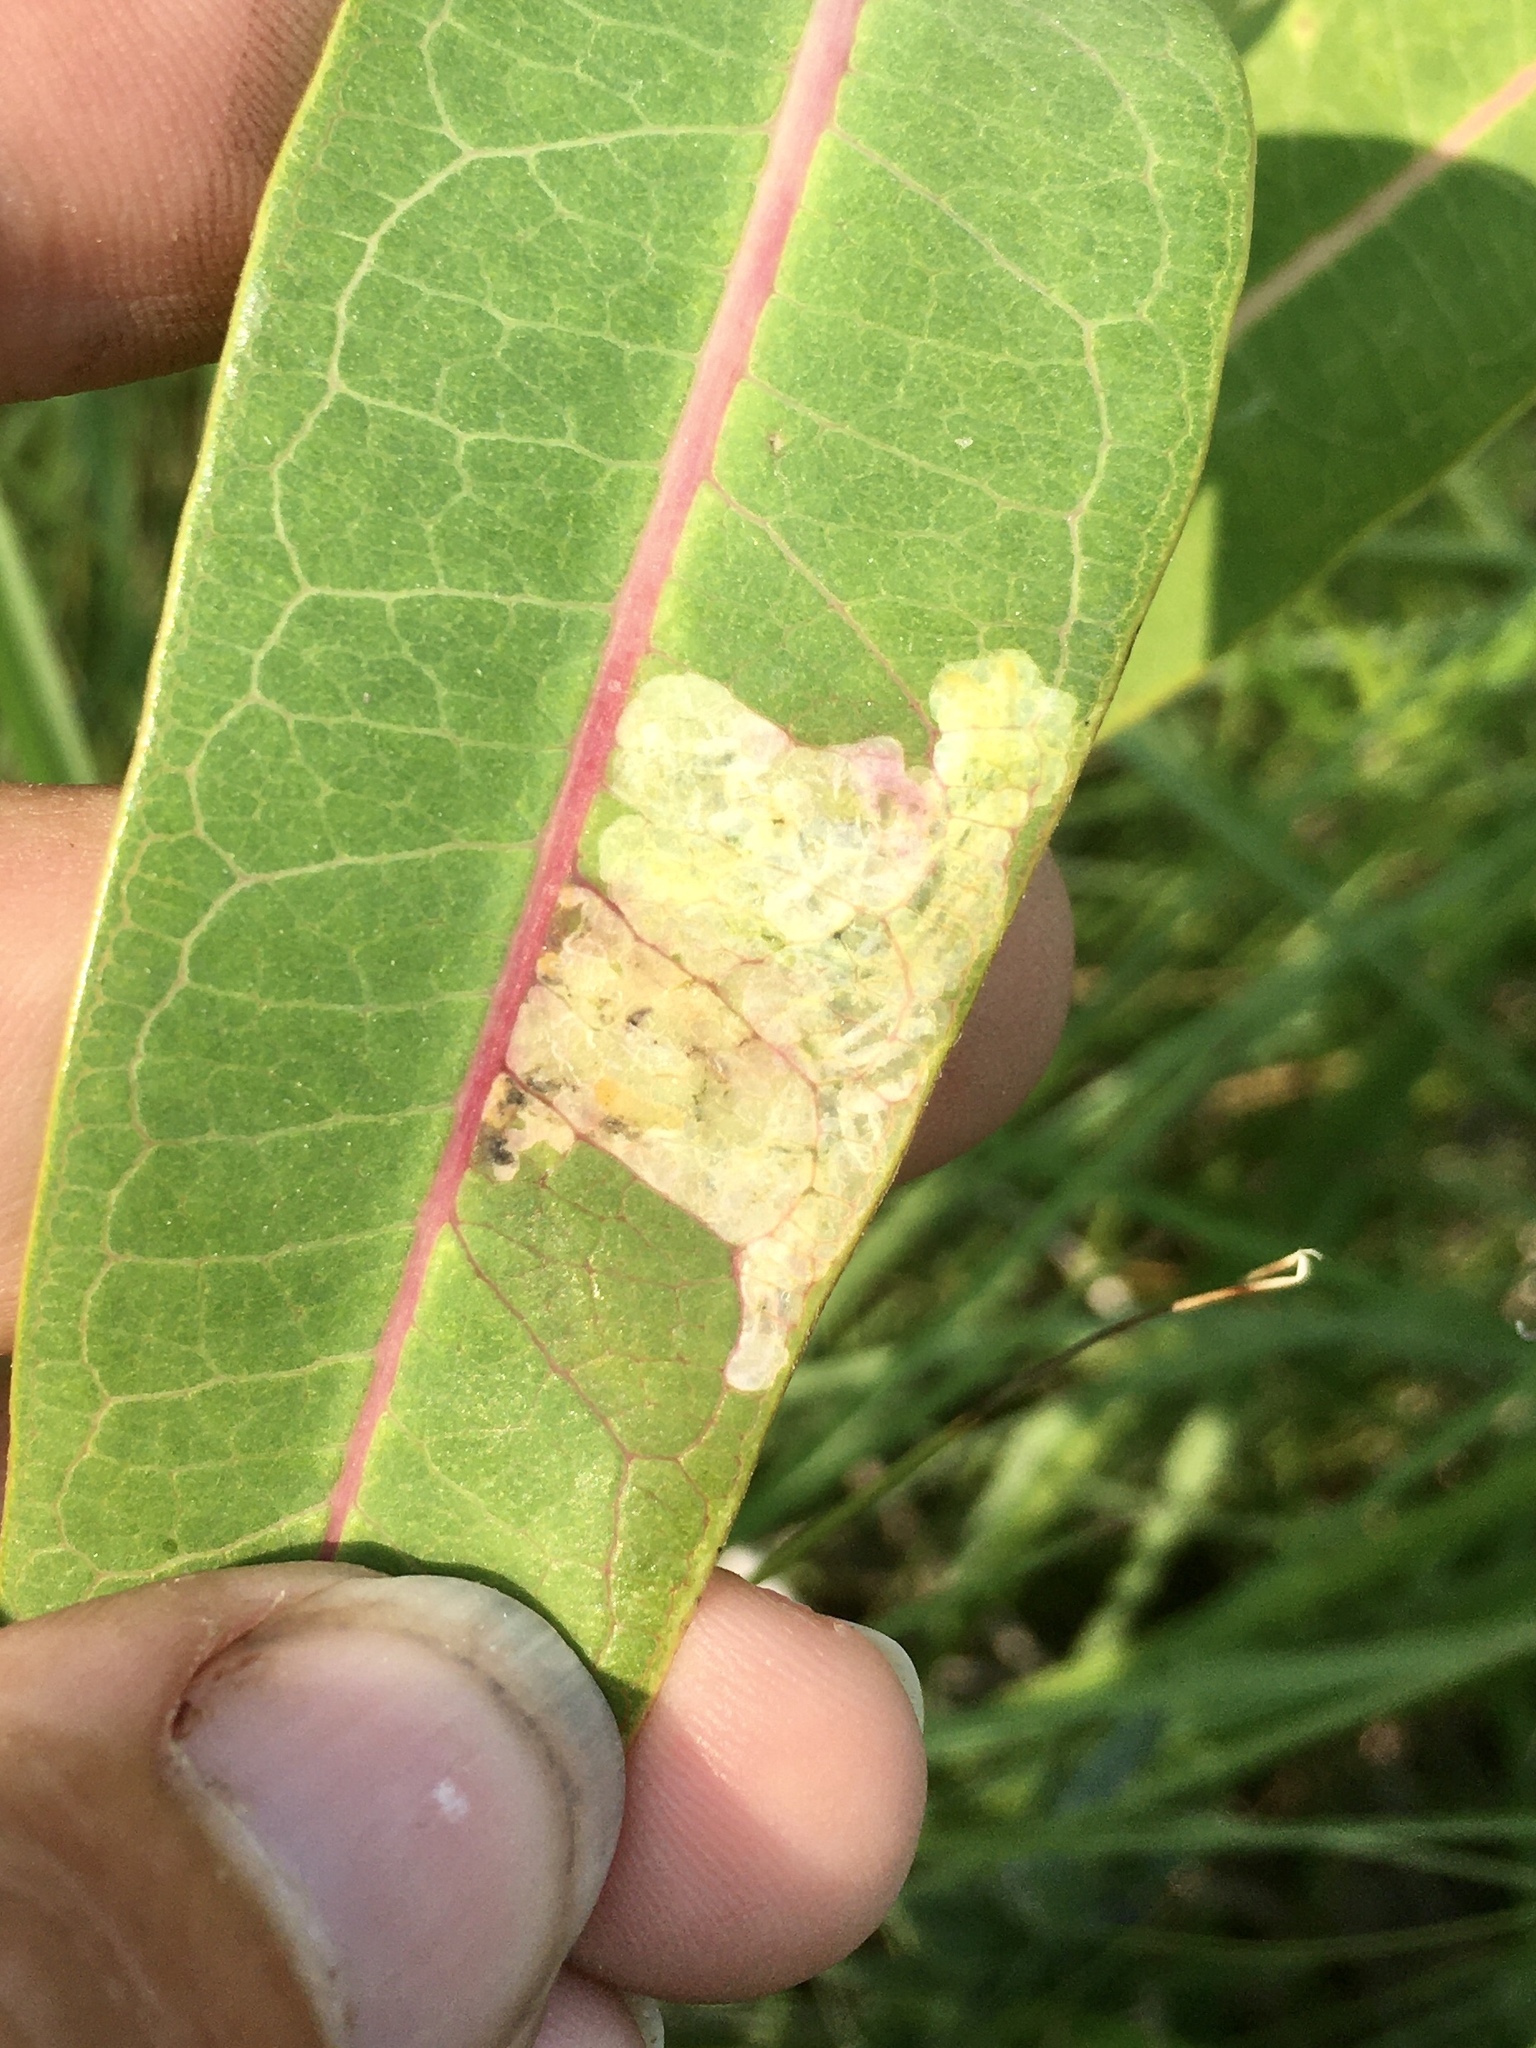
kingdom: Animalia
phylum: Arthropoda
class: Insecta
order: Diptera
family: Agromyzidae
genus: Liriomyza
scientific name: Liriomyza asclepiadis
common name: Milkweed leaf-miner fly
